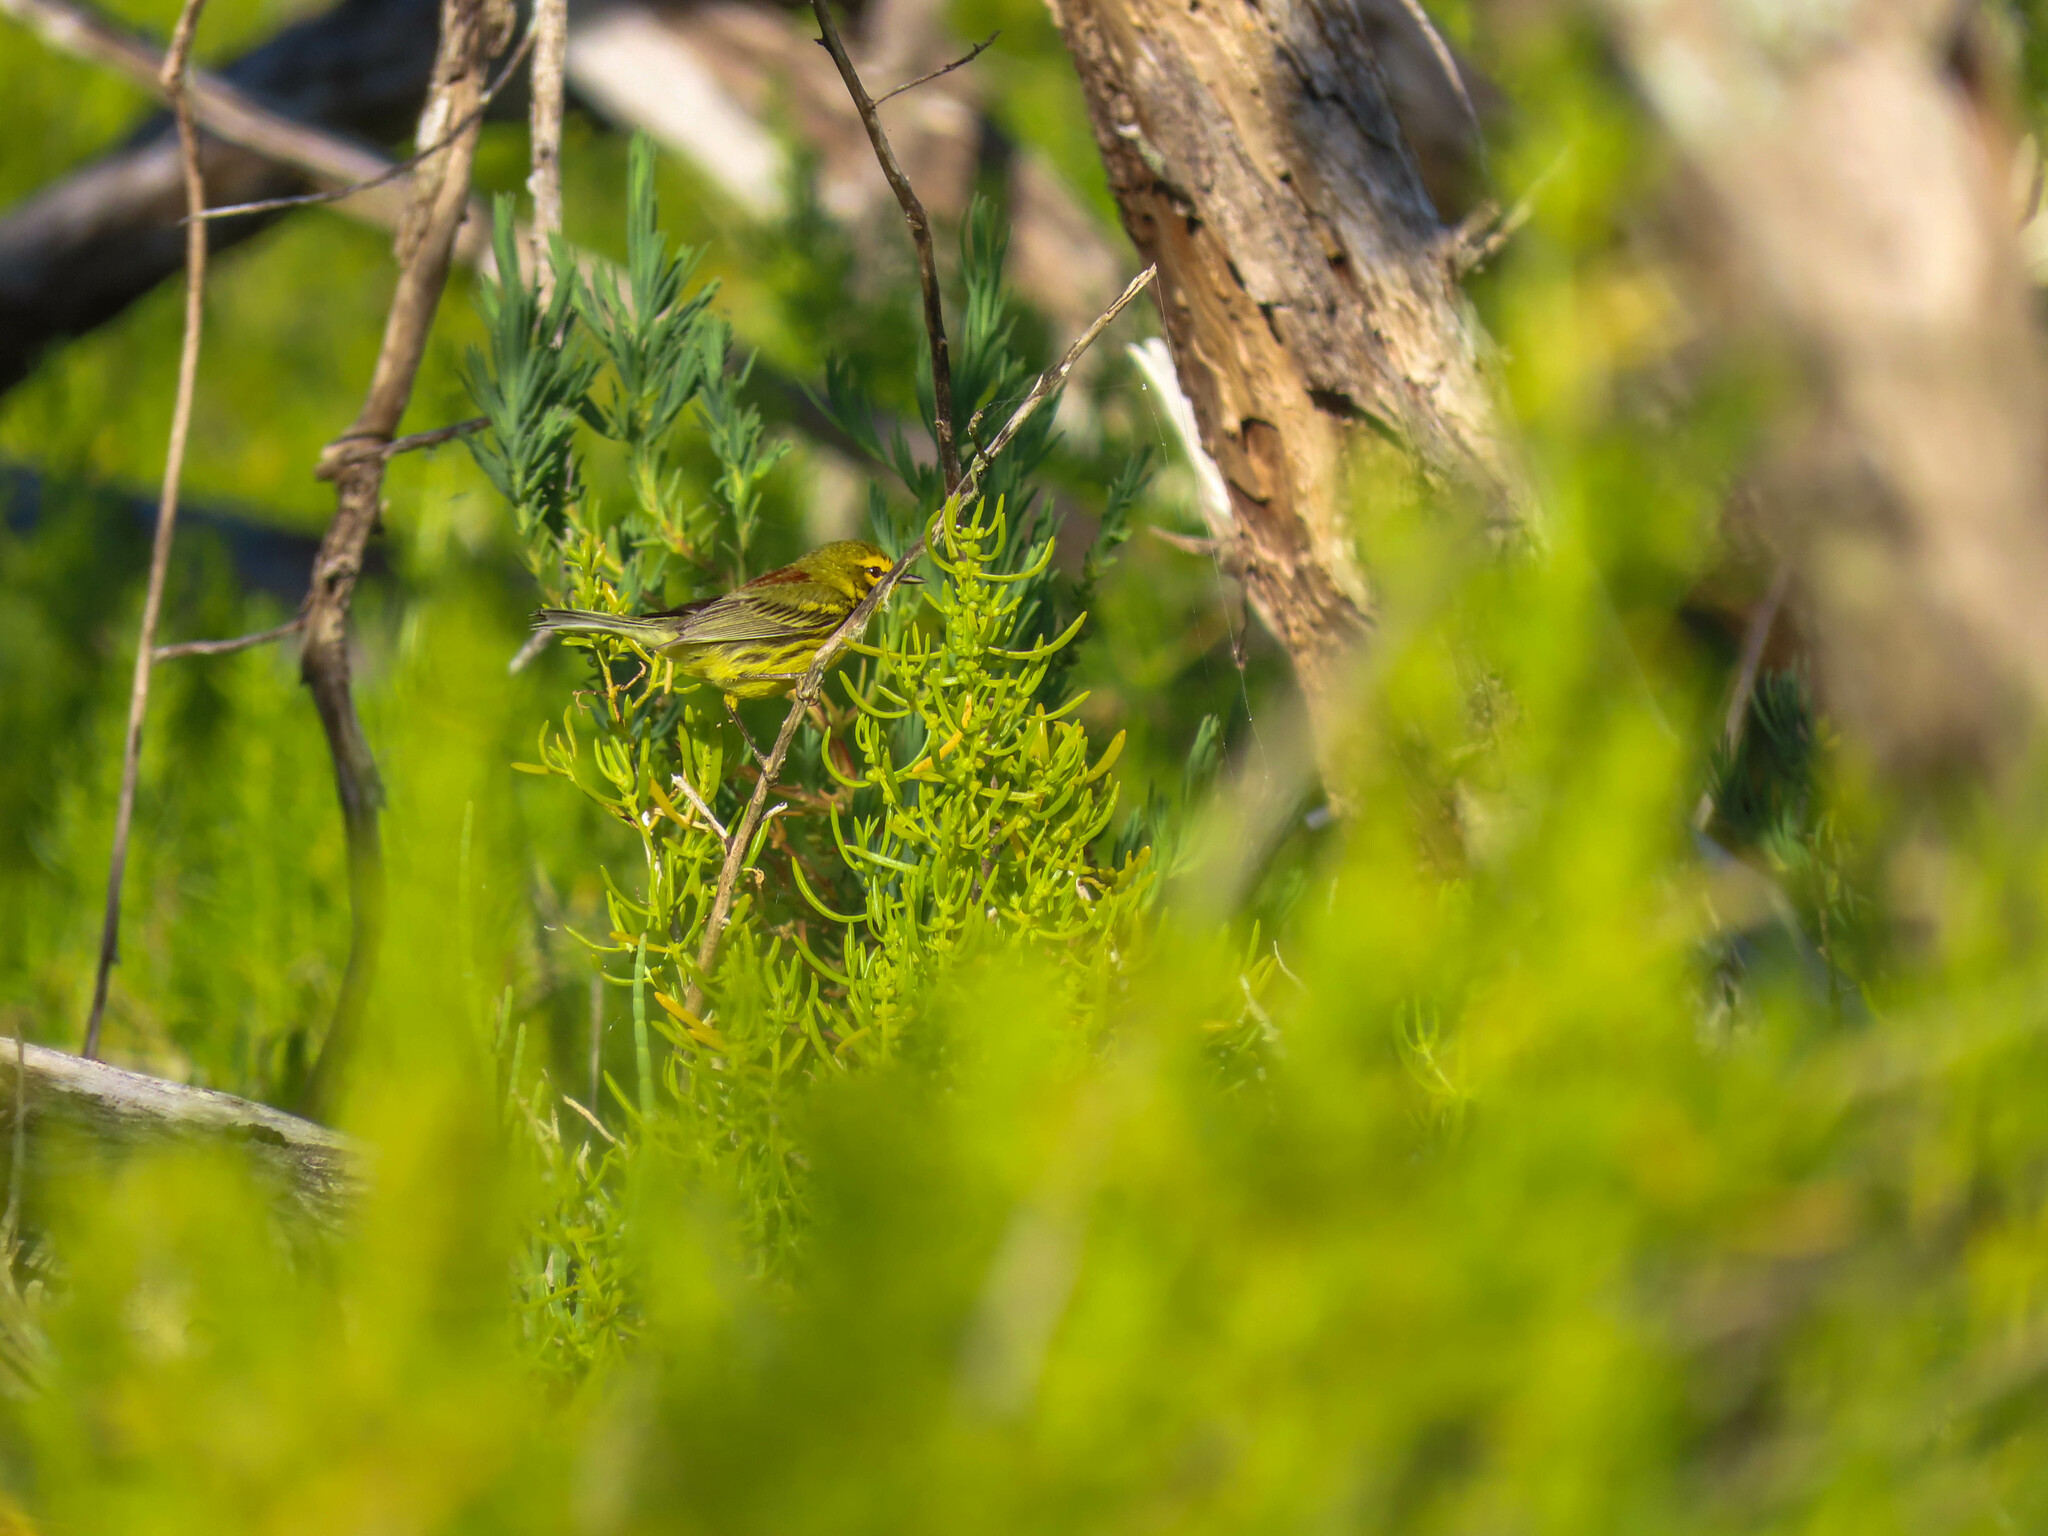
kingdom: Animalia
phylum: Chordata
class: Aves
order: Passeriformes
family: Parulidae
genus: Setophaga
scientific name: Setophaga discolor
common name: Prairie warbler
